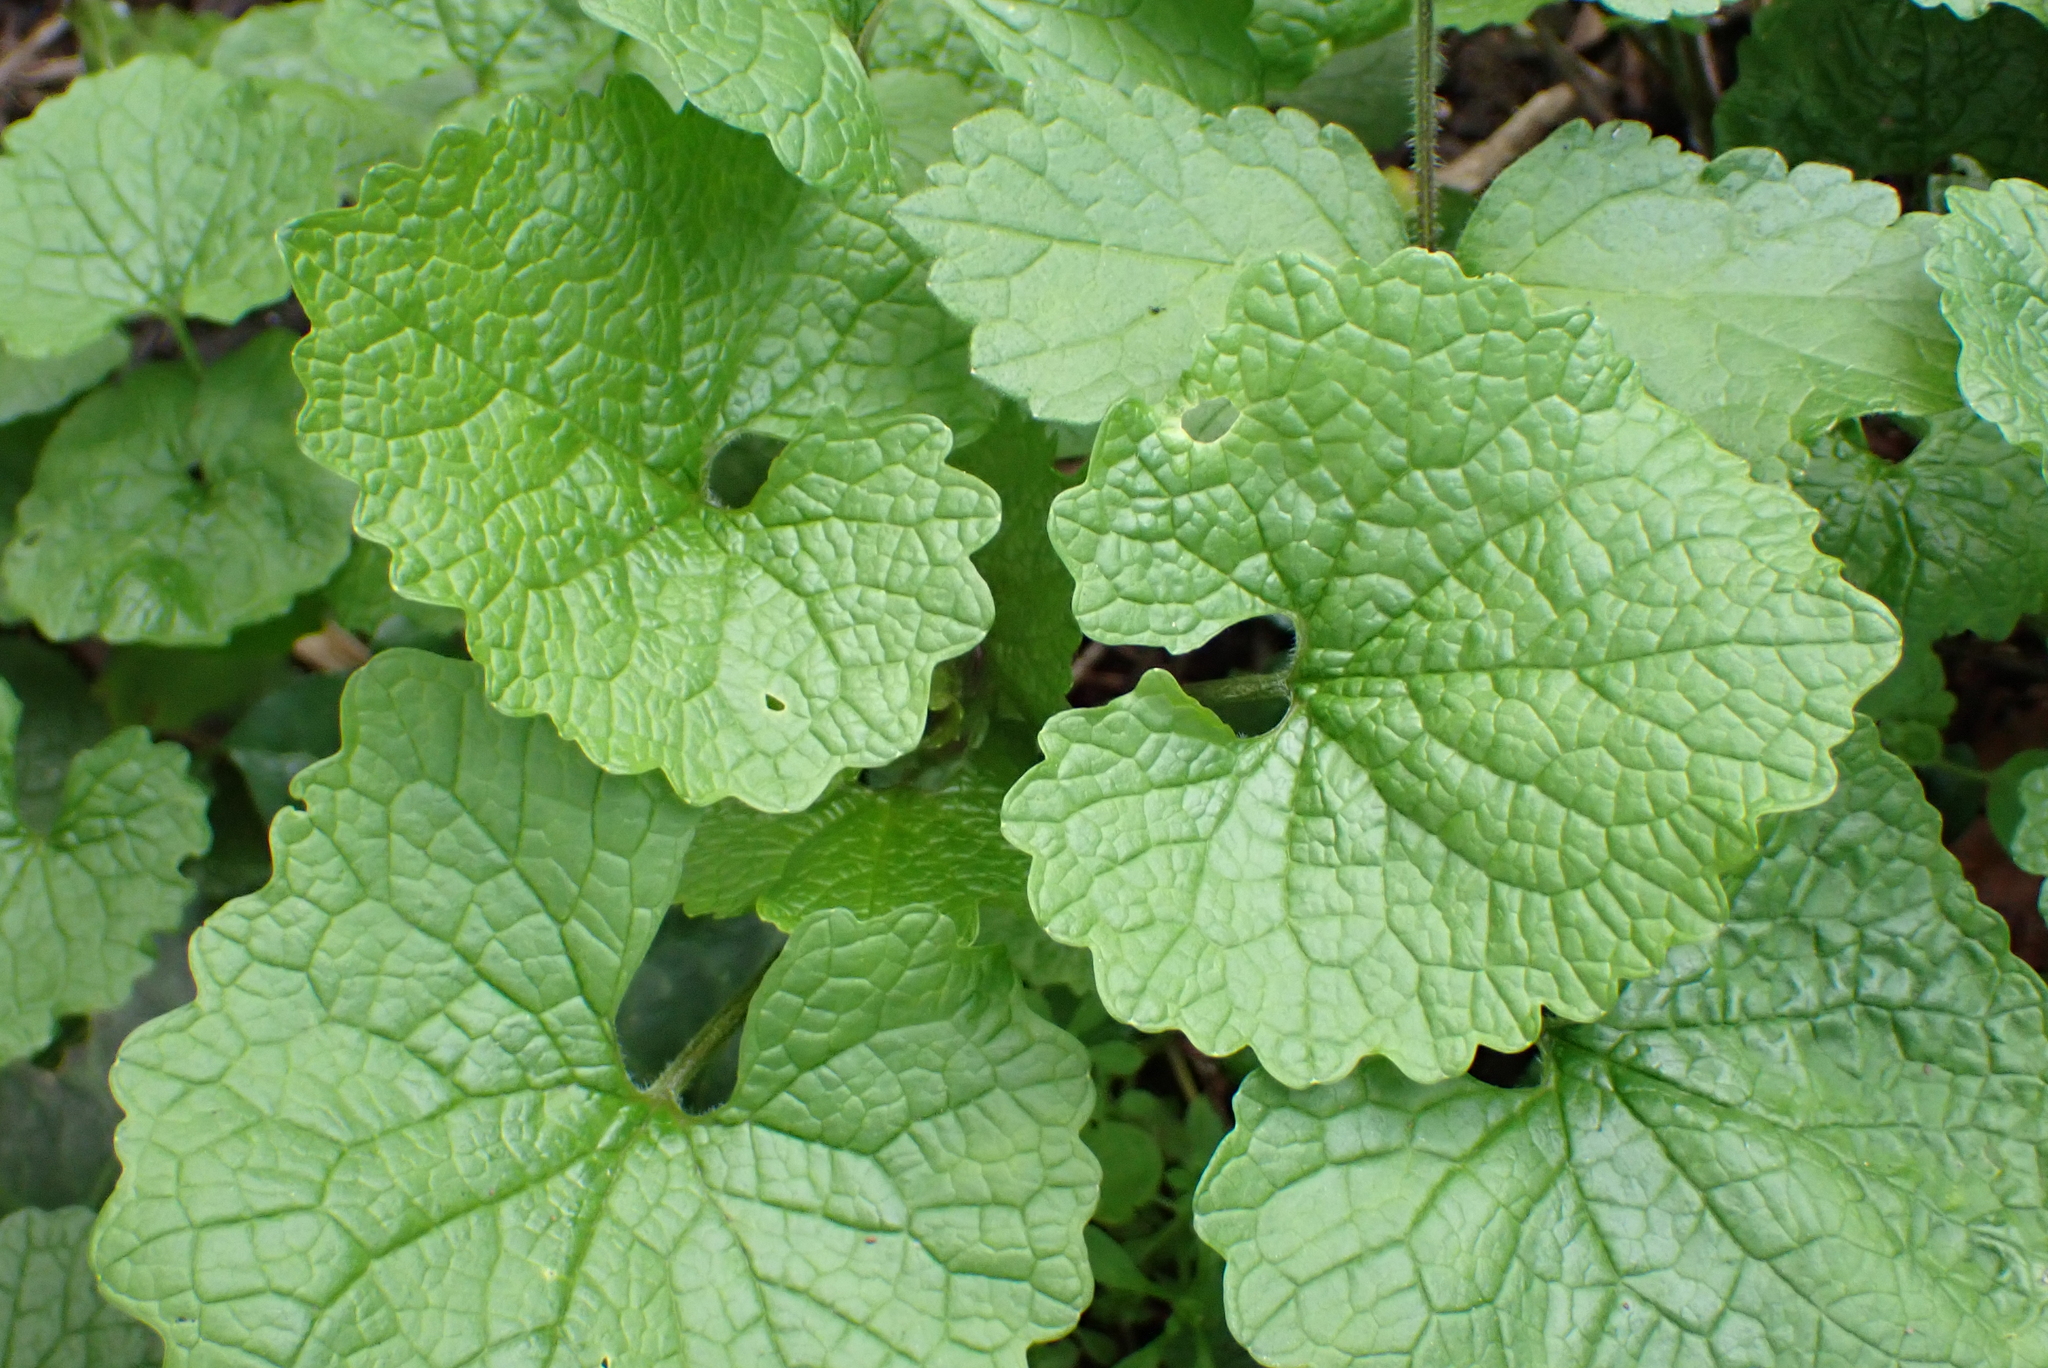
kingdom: Plantae
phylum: Tracheophyta
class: Magnoliopsida
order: Brassicales
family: Brassicaceae
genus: Alliaria
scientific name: Alliaria petiolata
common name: Garlic mustard
